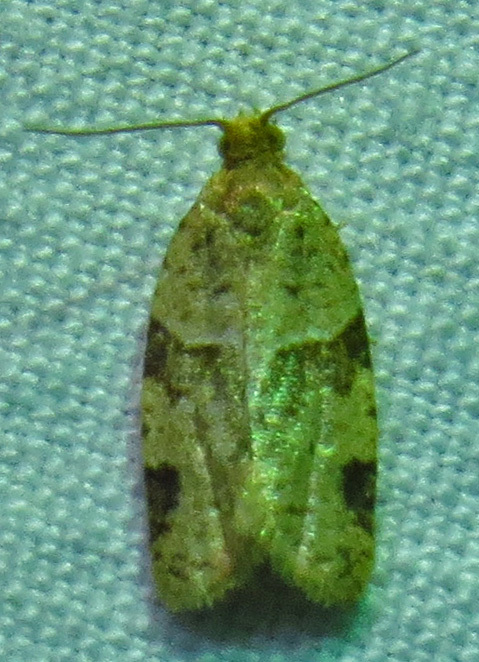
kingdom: Animalia
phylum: Arthropoda
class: Insecta
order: Lepidoptera
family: Tortricidae
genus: Clepsis
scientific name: Clepsis peritana
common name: Garden tortrix
